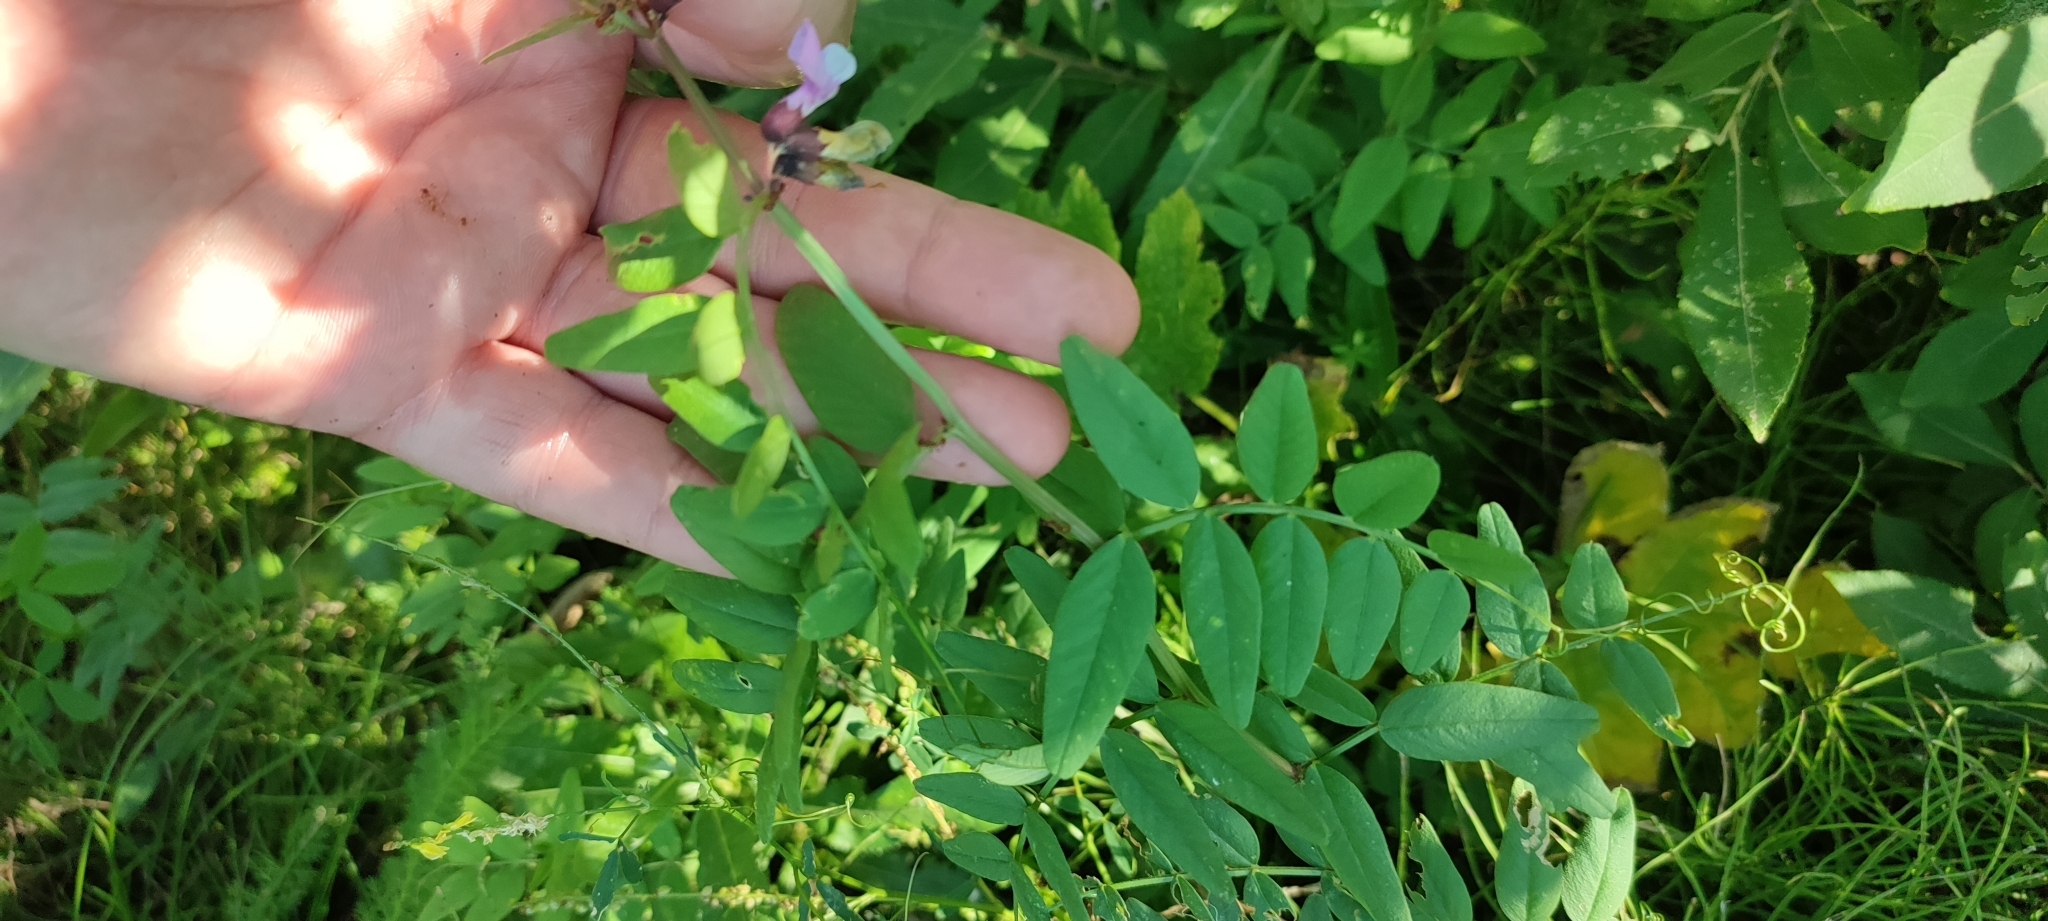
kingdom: Plantae
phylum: Tracheophyta
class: Magnoliopsida
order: Fabales
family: Fabaceae
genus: Vicia
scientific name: Vicia sepium
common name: Bush vetch
